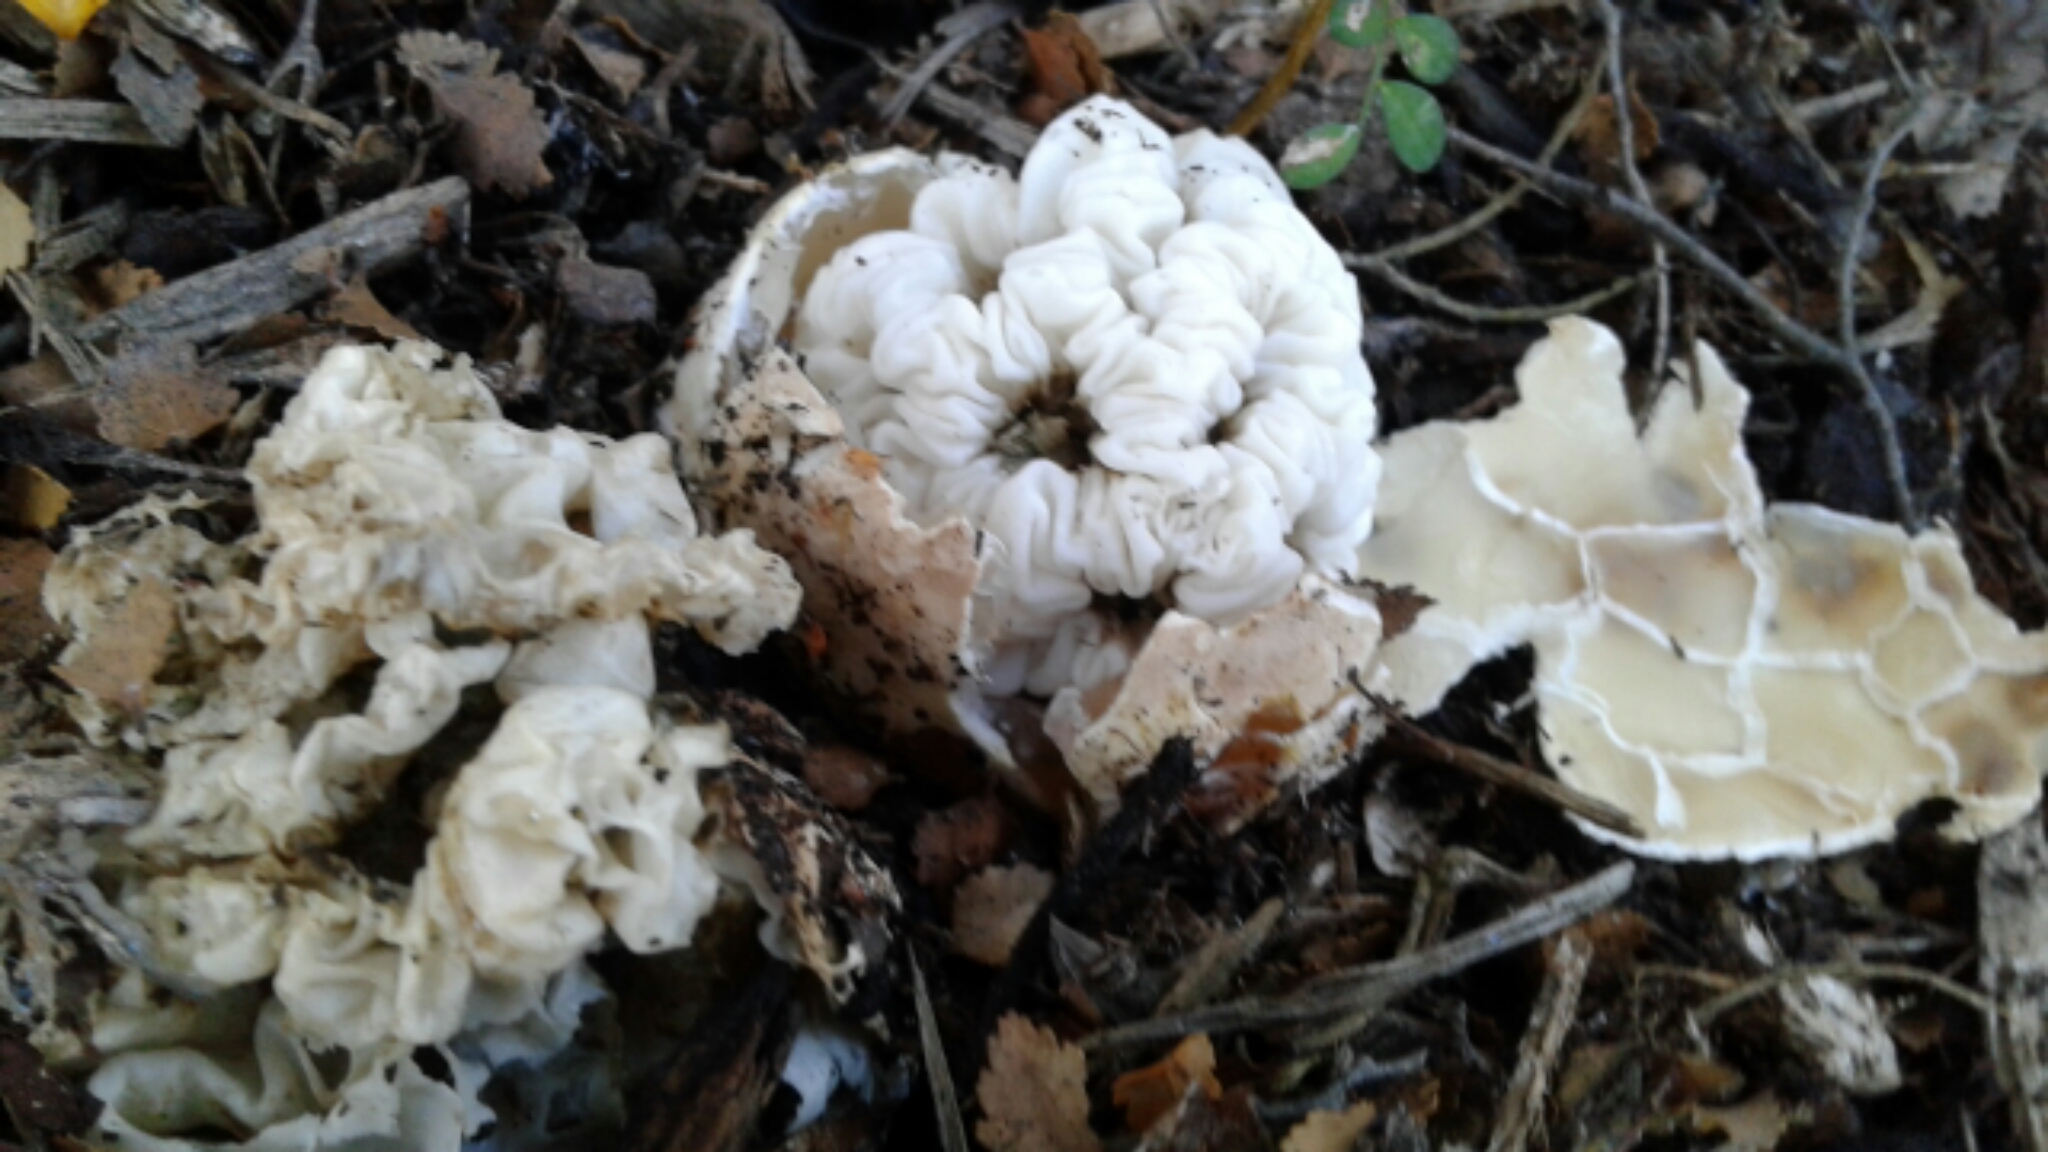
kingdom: Fungi
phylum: Basidiomycota
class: Agaricomycetes
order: Phallales
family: Phallaceae
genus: Ileodictyon
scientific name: Ileodictyon cibarium
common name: Basket fungus
